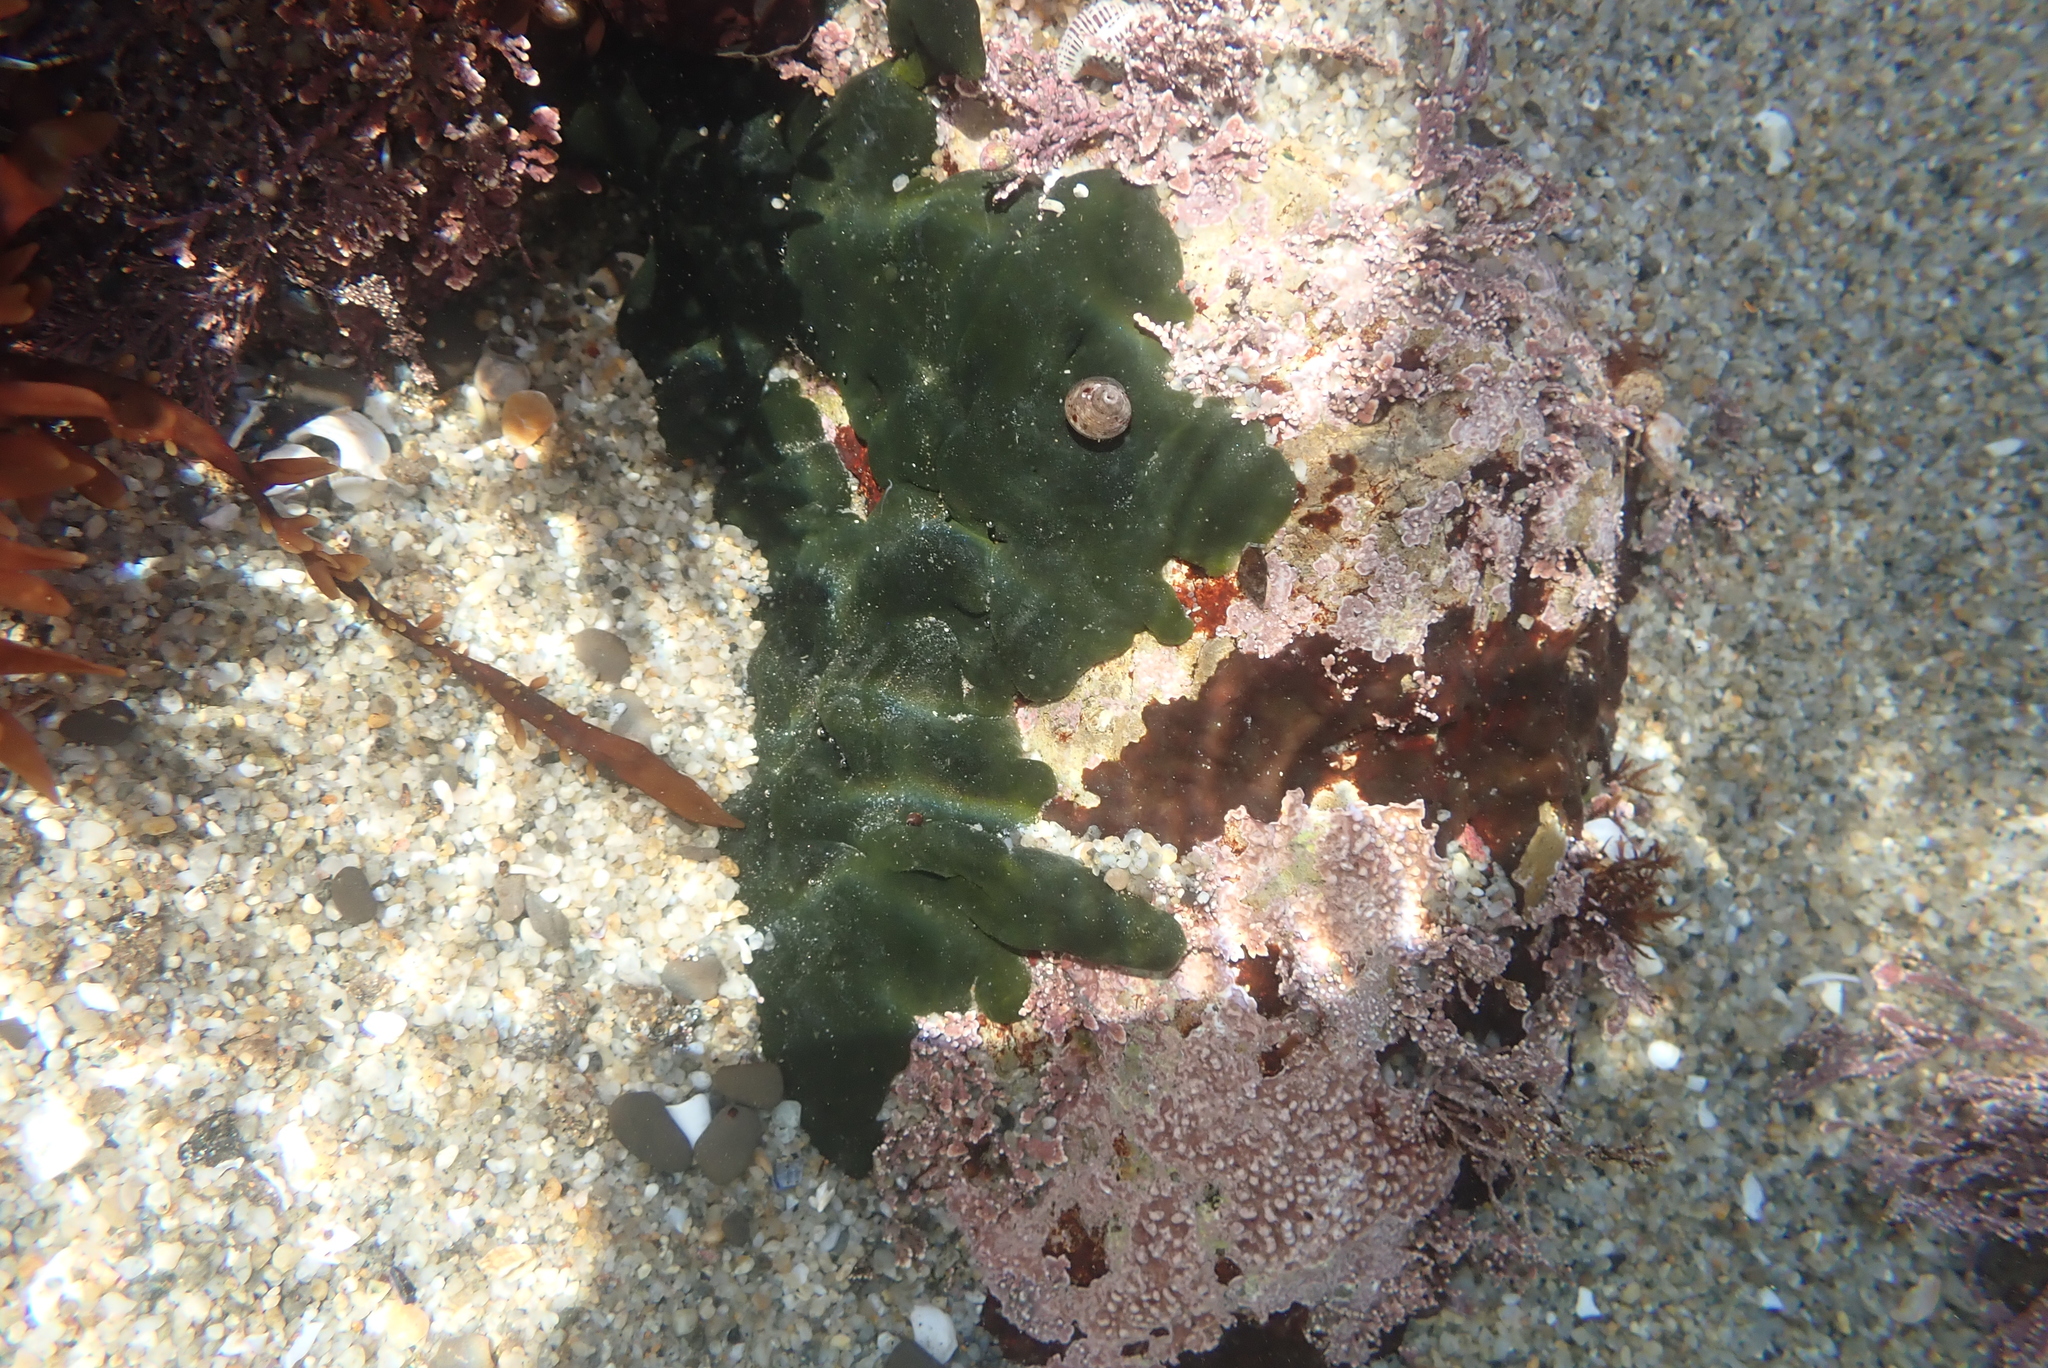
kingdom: Plantae
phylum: Chlorophyta
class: Ulvophyceae
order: Bryopsidales
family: Codiaceae
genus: Codium
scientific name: Codium setchellii
